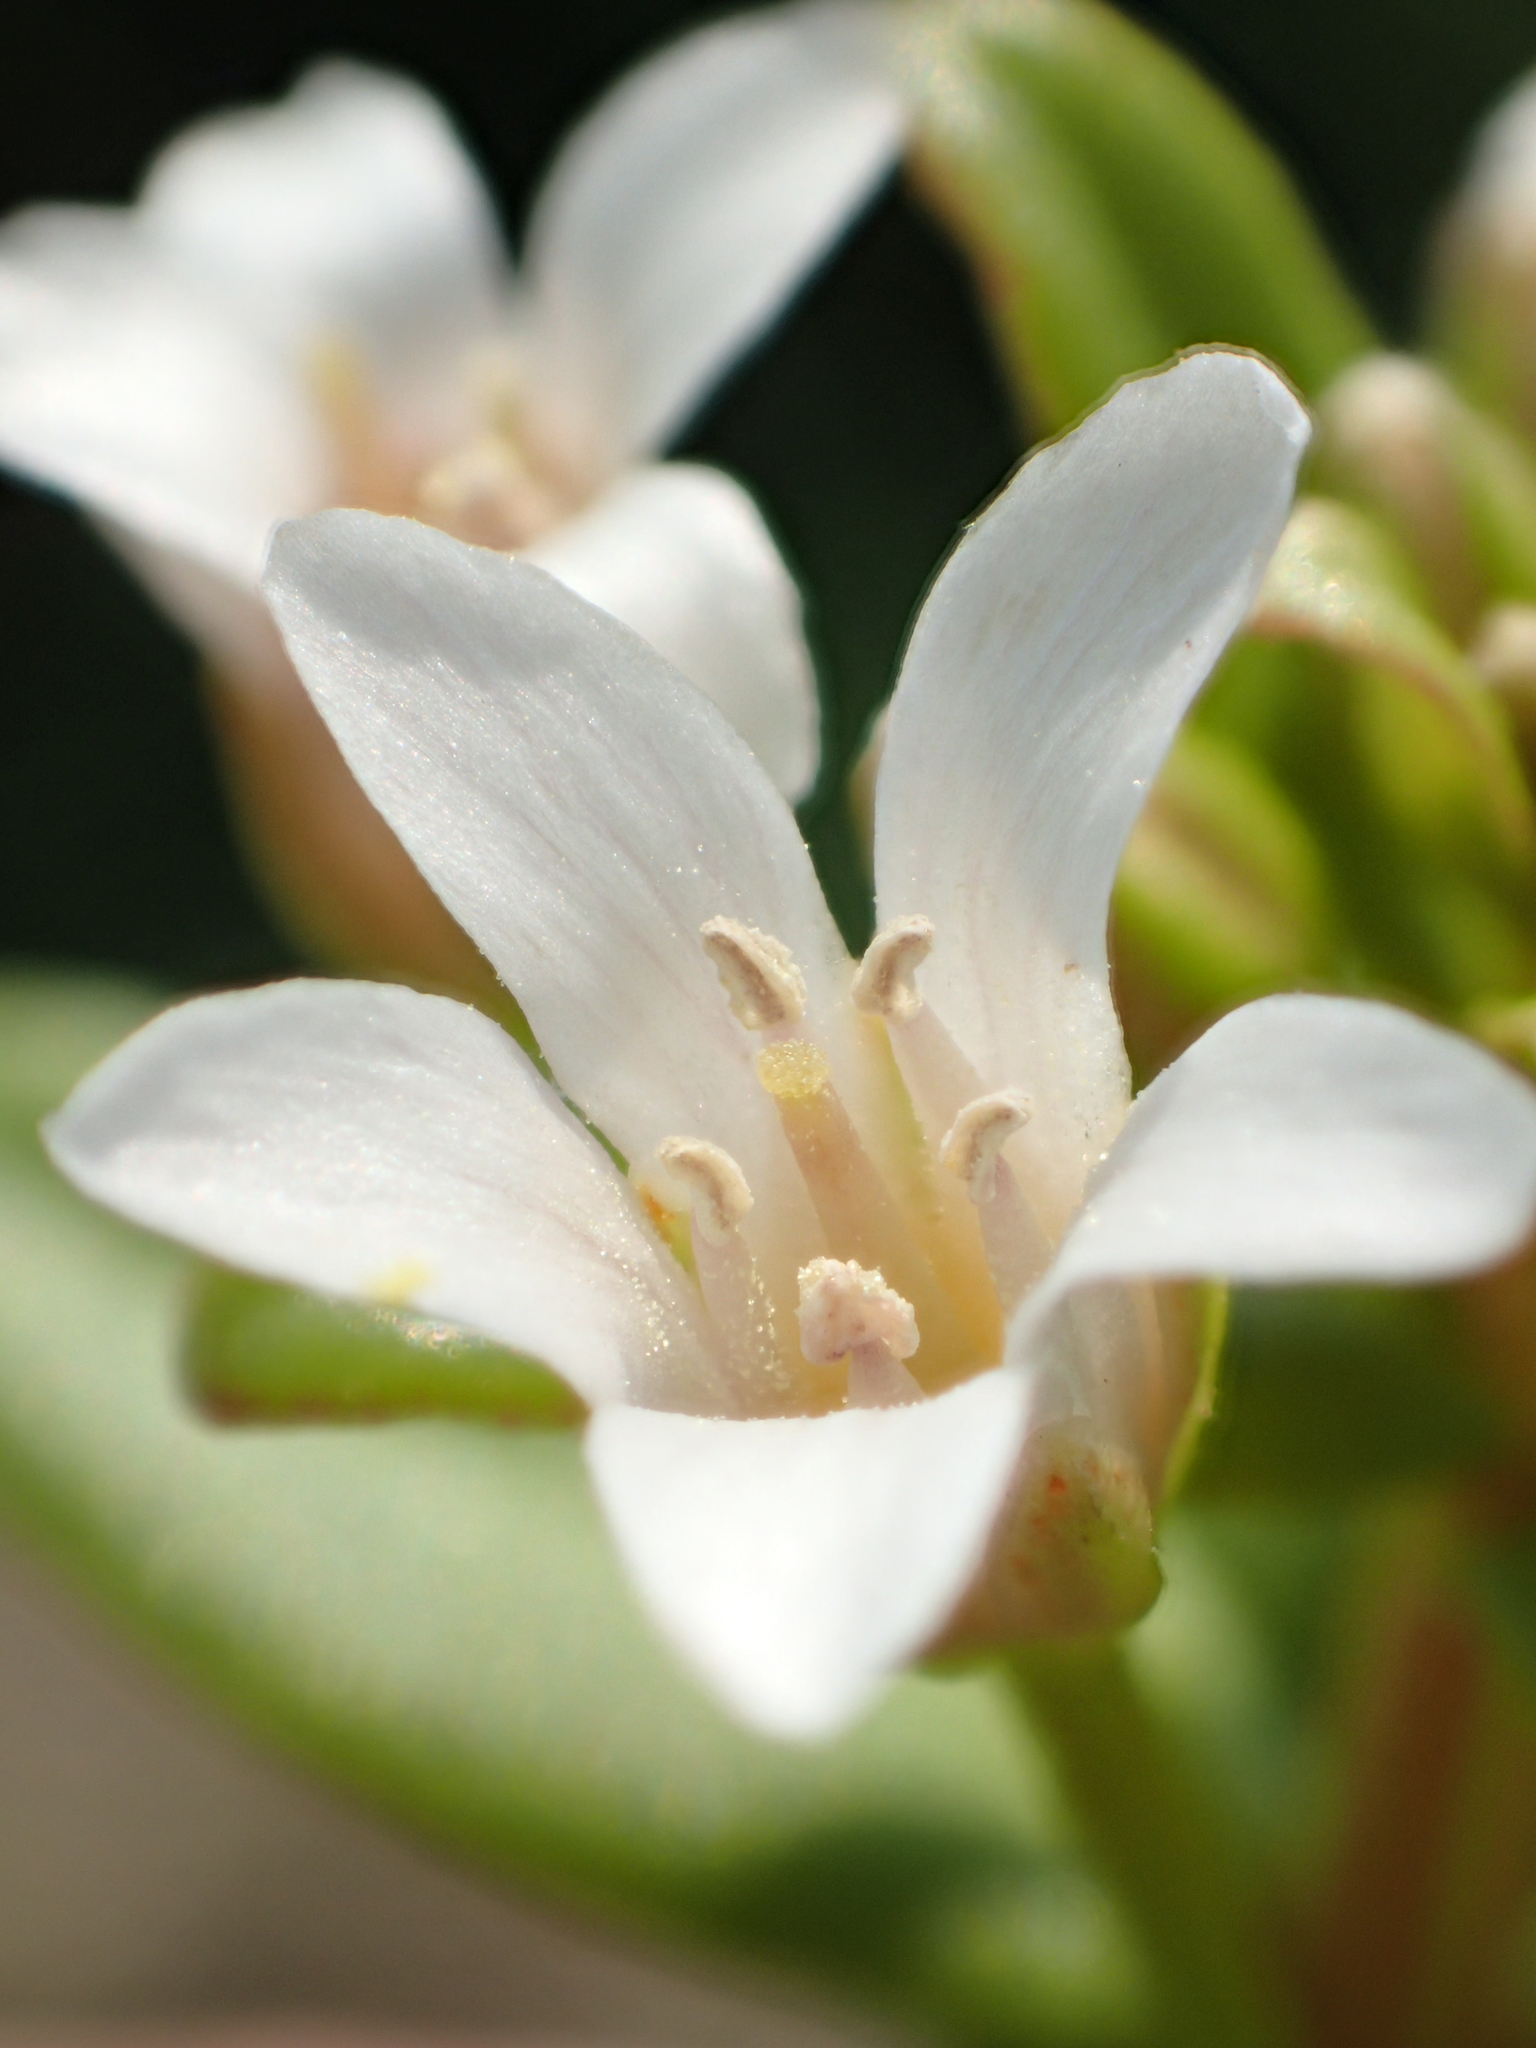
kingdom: Plantae
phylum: Tracheophyta
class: Magnoliopsida
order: Ericales
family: Primulaceae
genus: Lysimachia
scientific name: Lysimachia mauritiana
